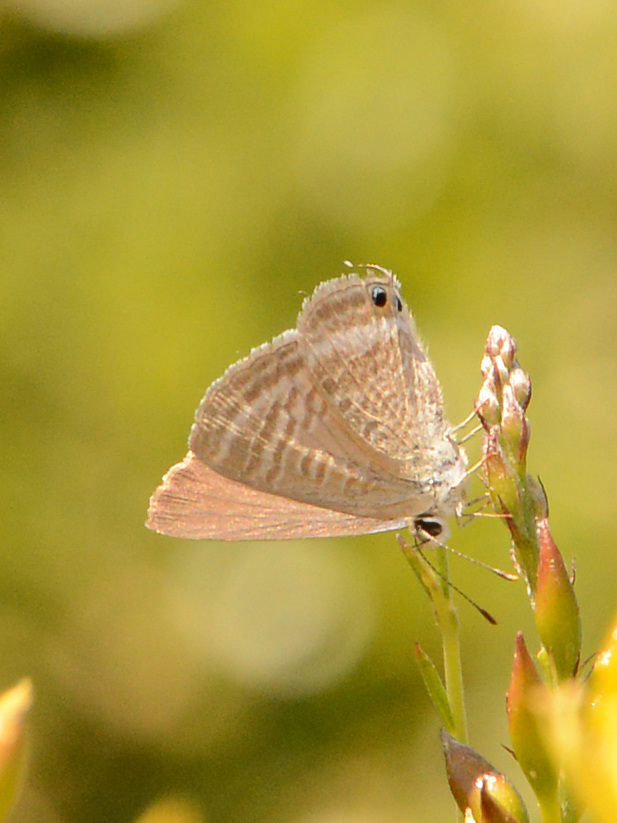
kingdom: Animalia
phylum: Arthropoda
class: Insecta
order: Lepidoptera
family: Lycaenidae
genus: Lampides
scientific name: Lampides boeticus
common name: Long-tailed blue
